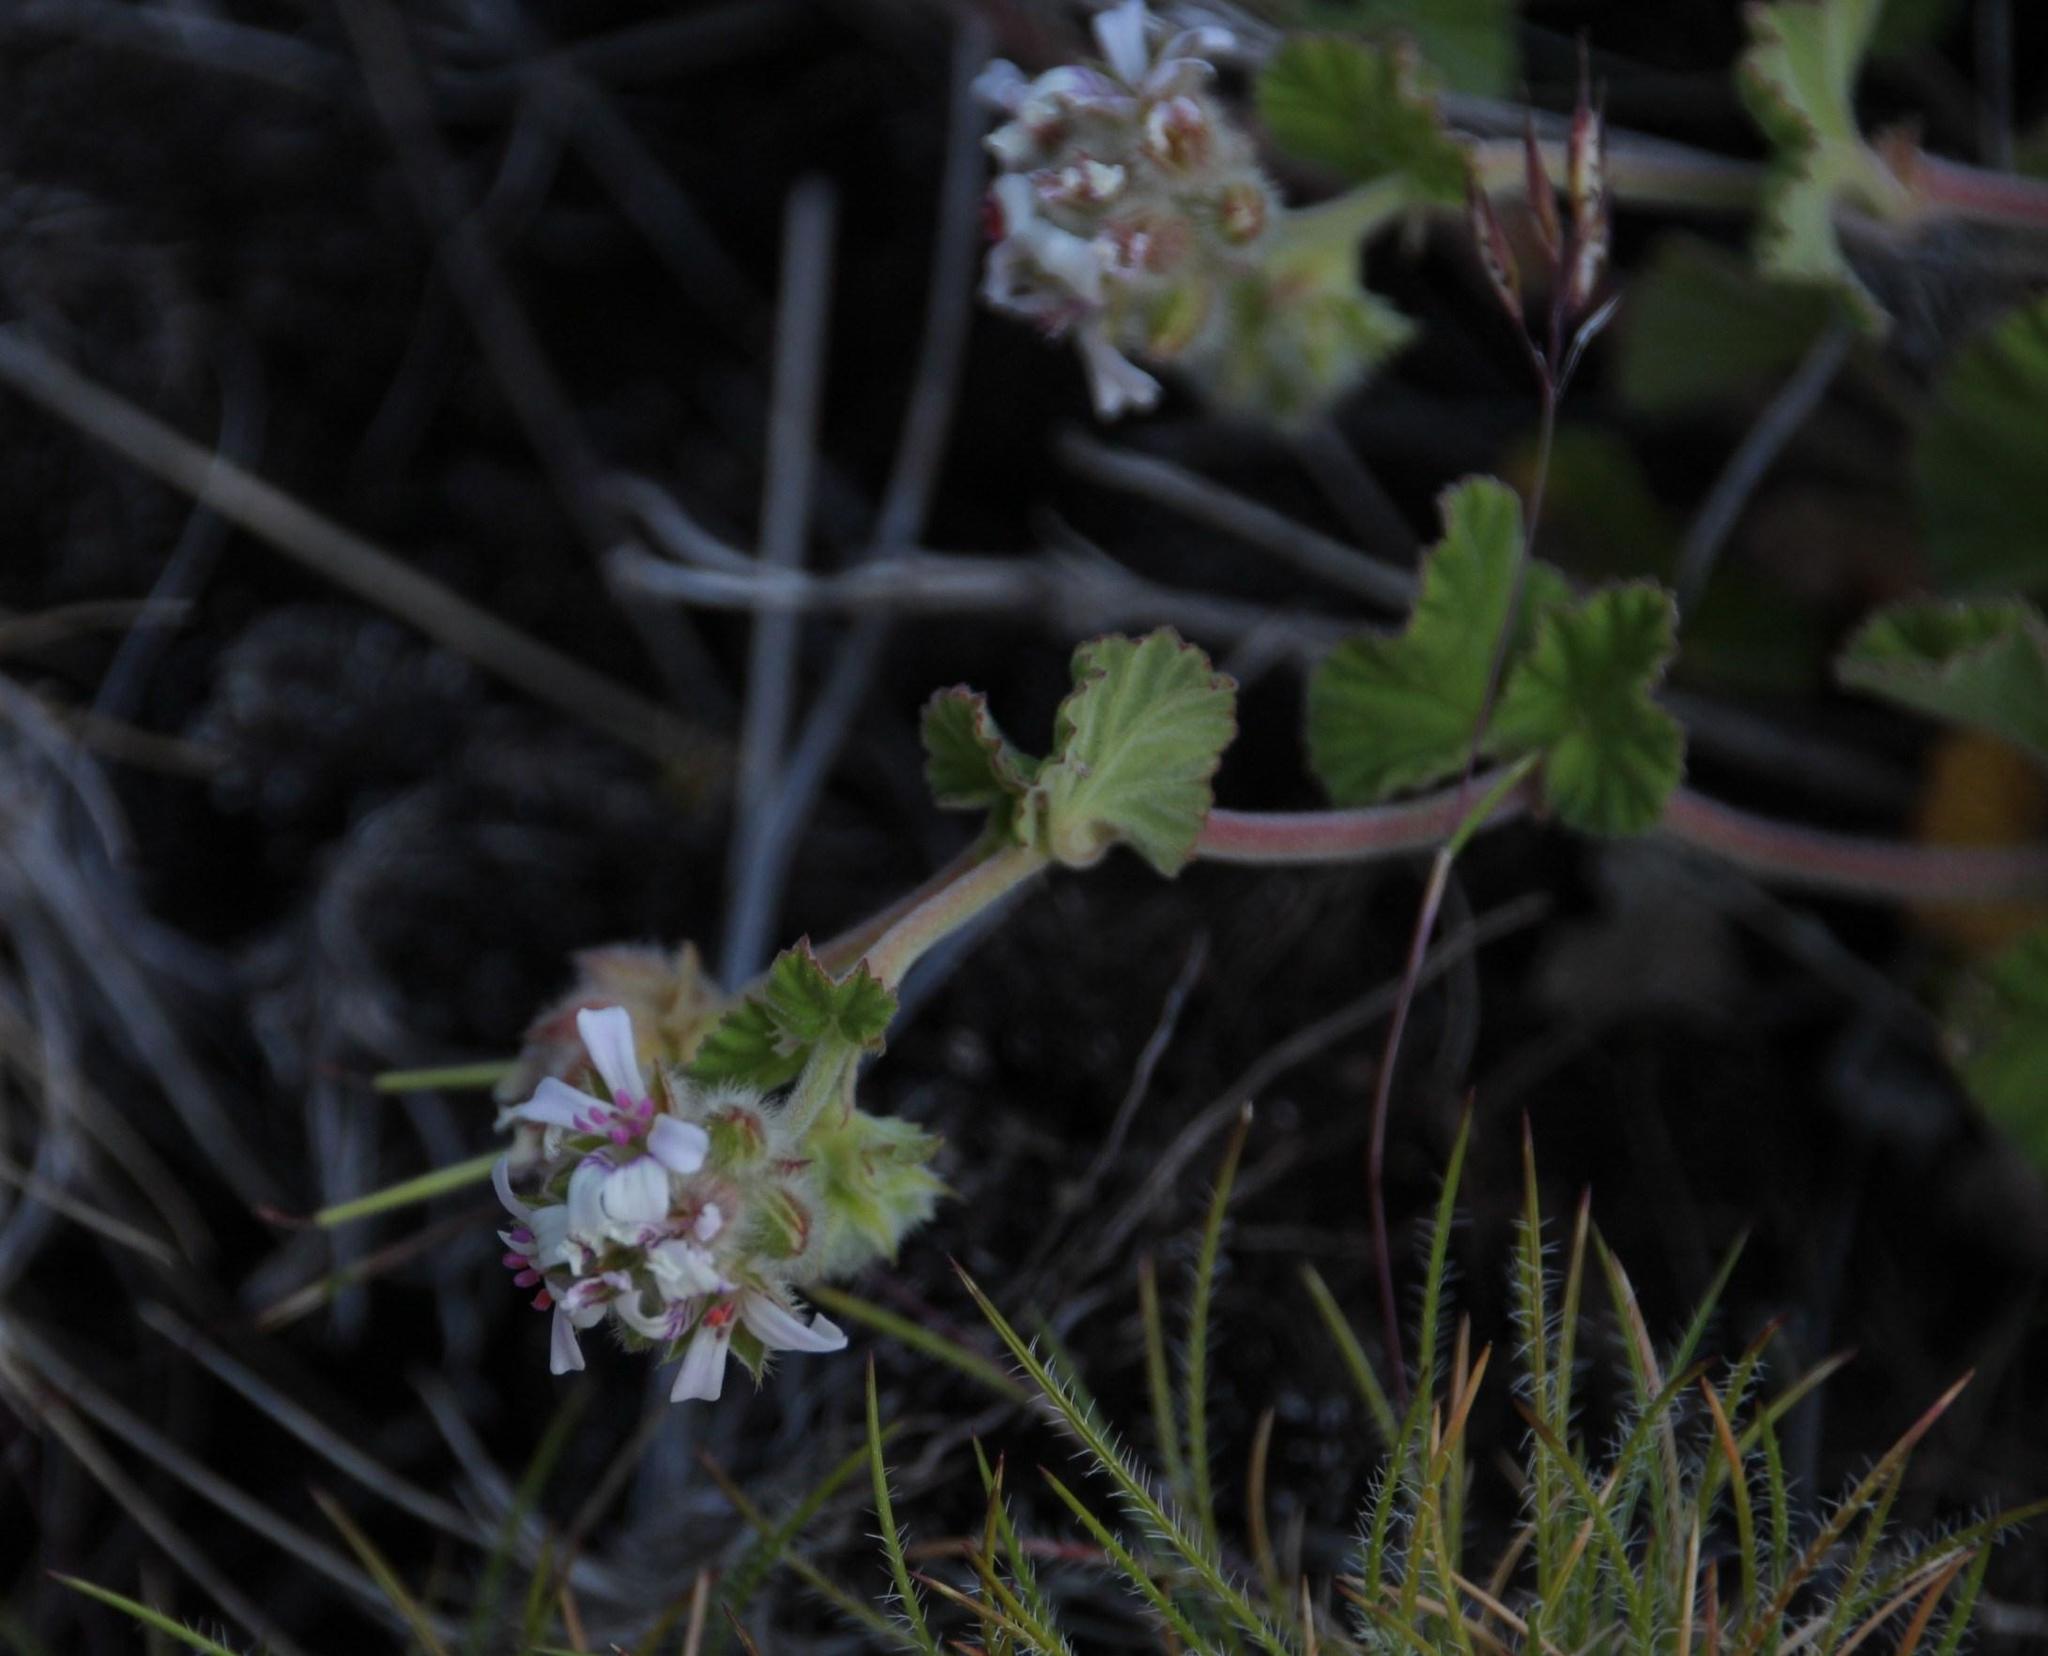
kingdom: Plantae
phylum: Tracheophyta
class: Magnoliopsida
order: Geraniales
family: Geraniaceae
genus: Pelargonium
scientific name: Pelargonium sessiliflorum
